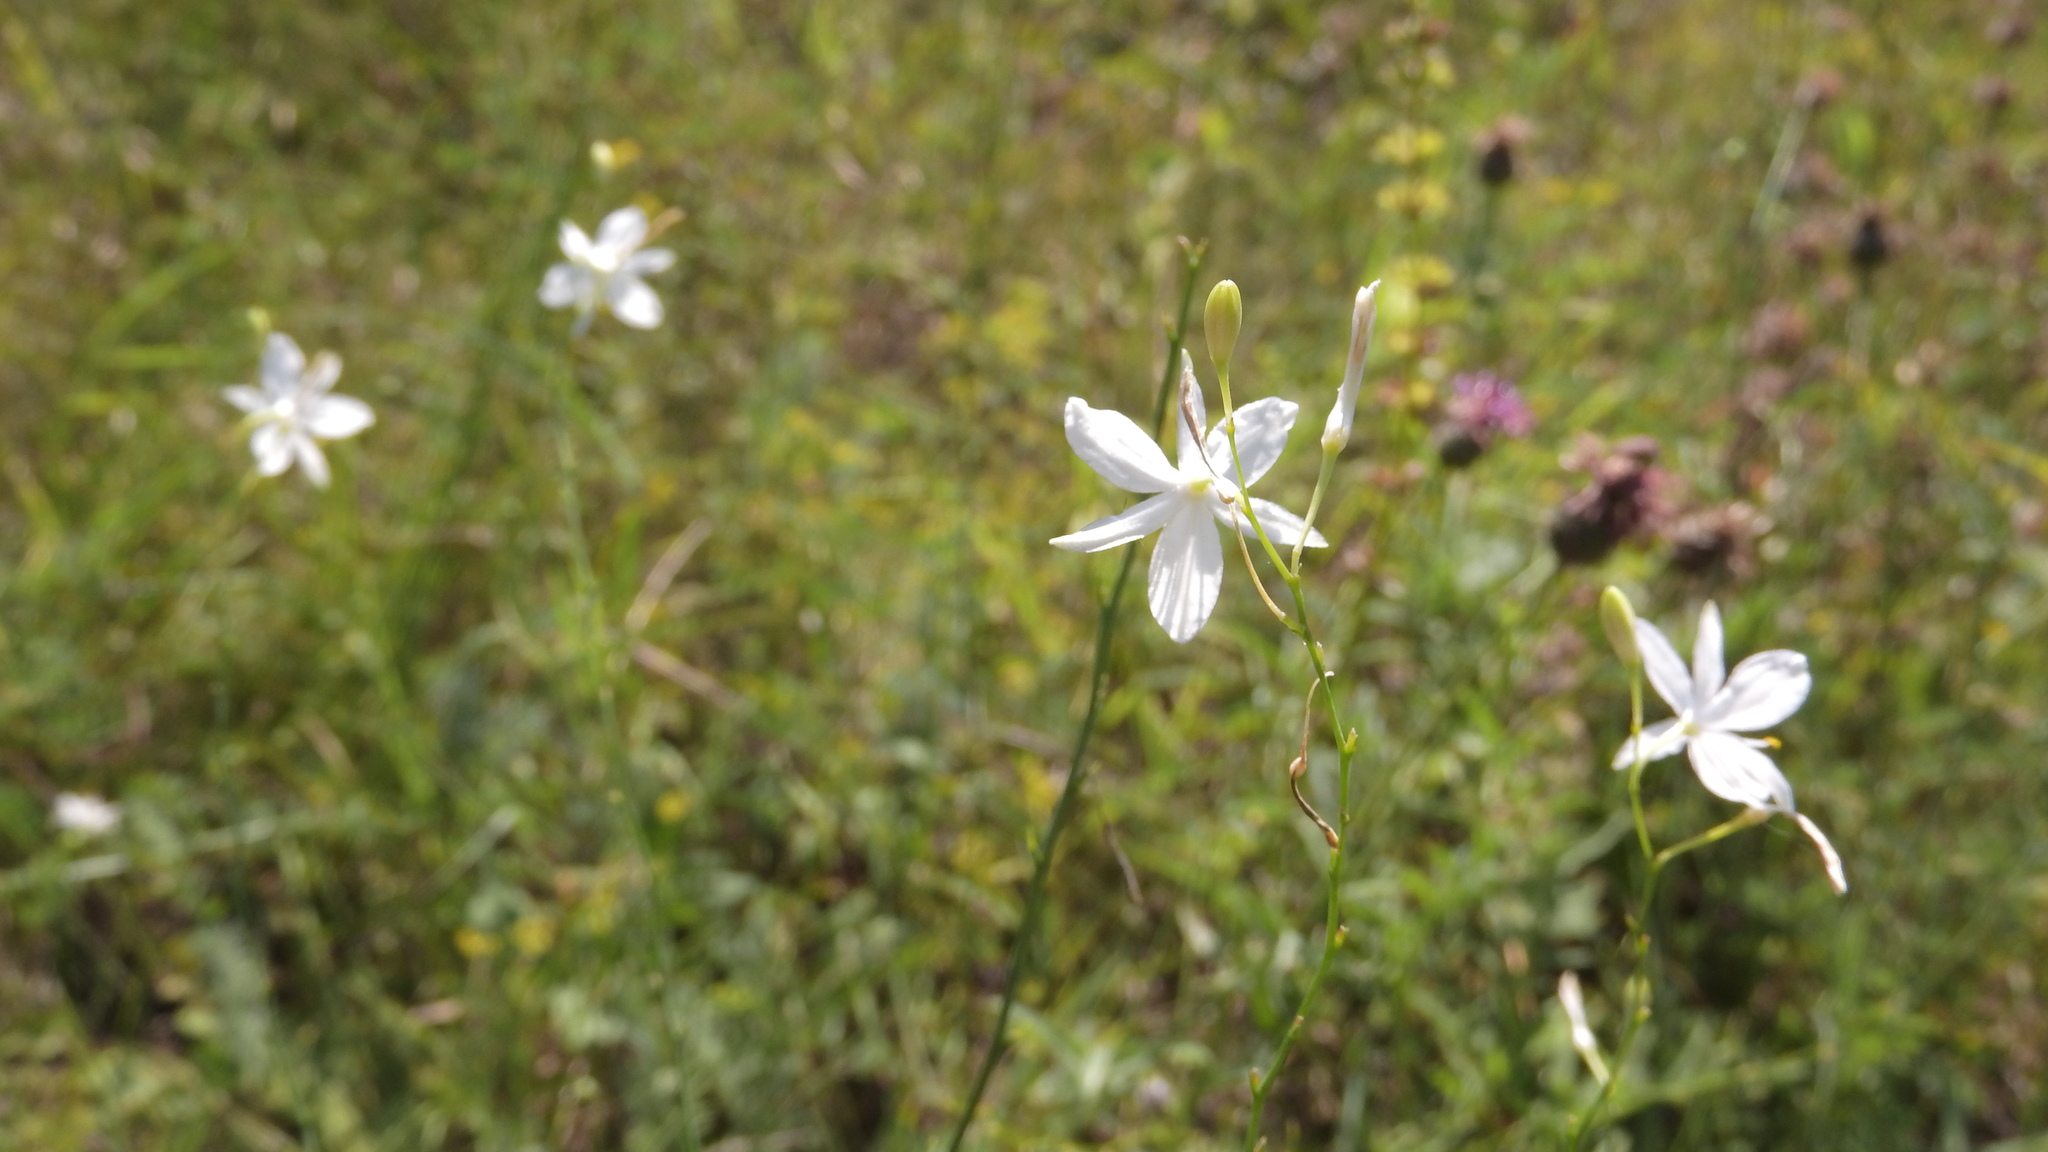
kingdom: Plantae
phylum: Tracheophyta
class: Liliopsida
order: Asparagales
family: Asparagaceae
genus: Anthericum
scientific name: Anthericum ramosum
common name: Branched st. bernard's-lily
